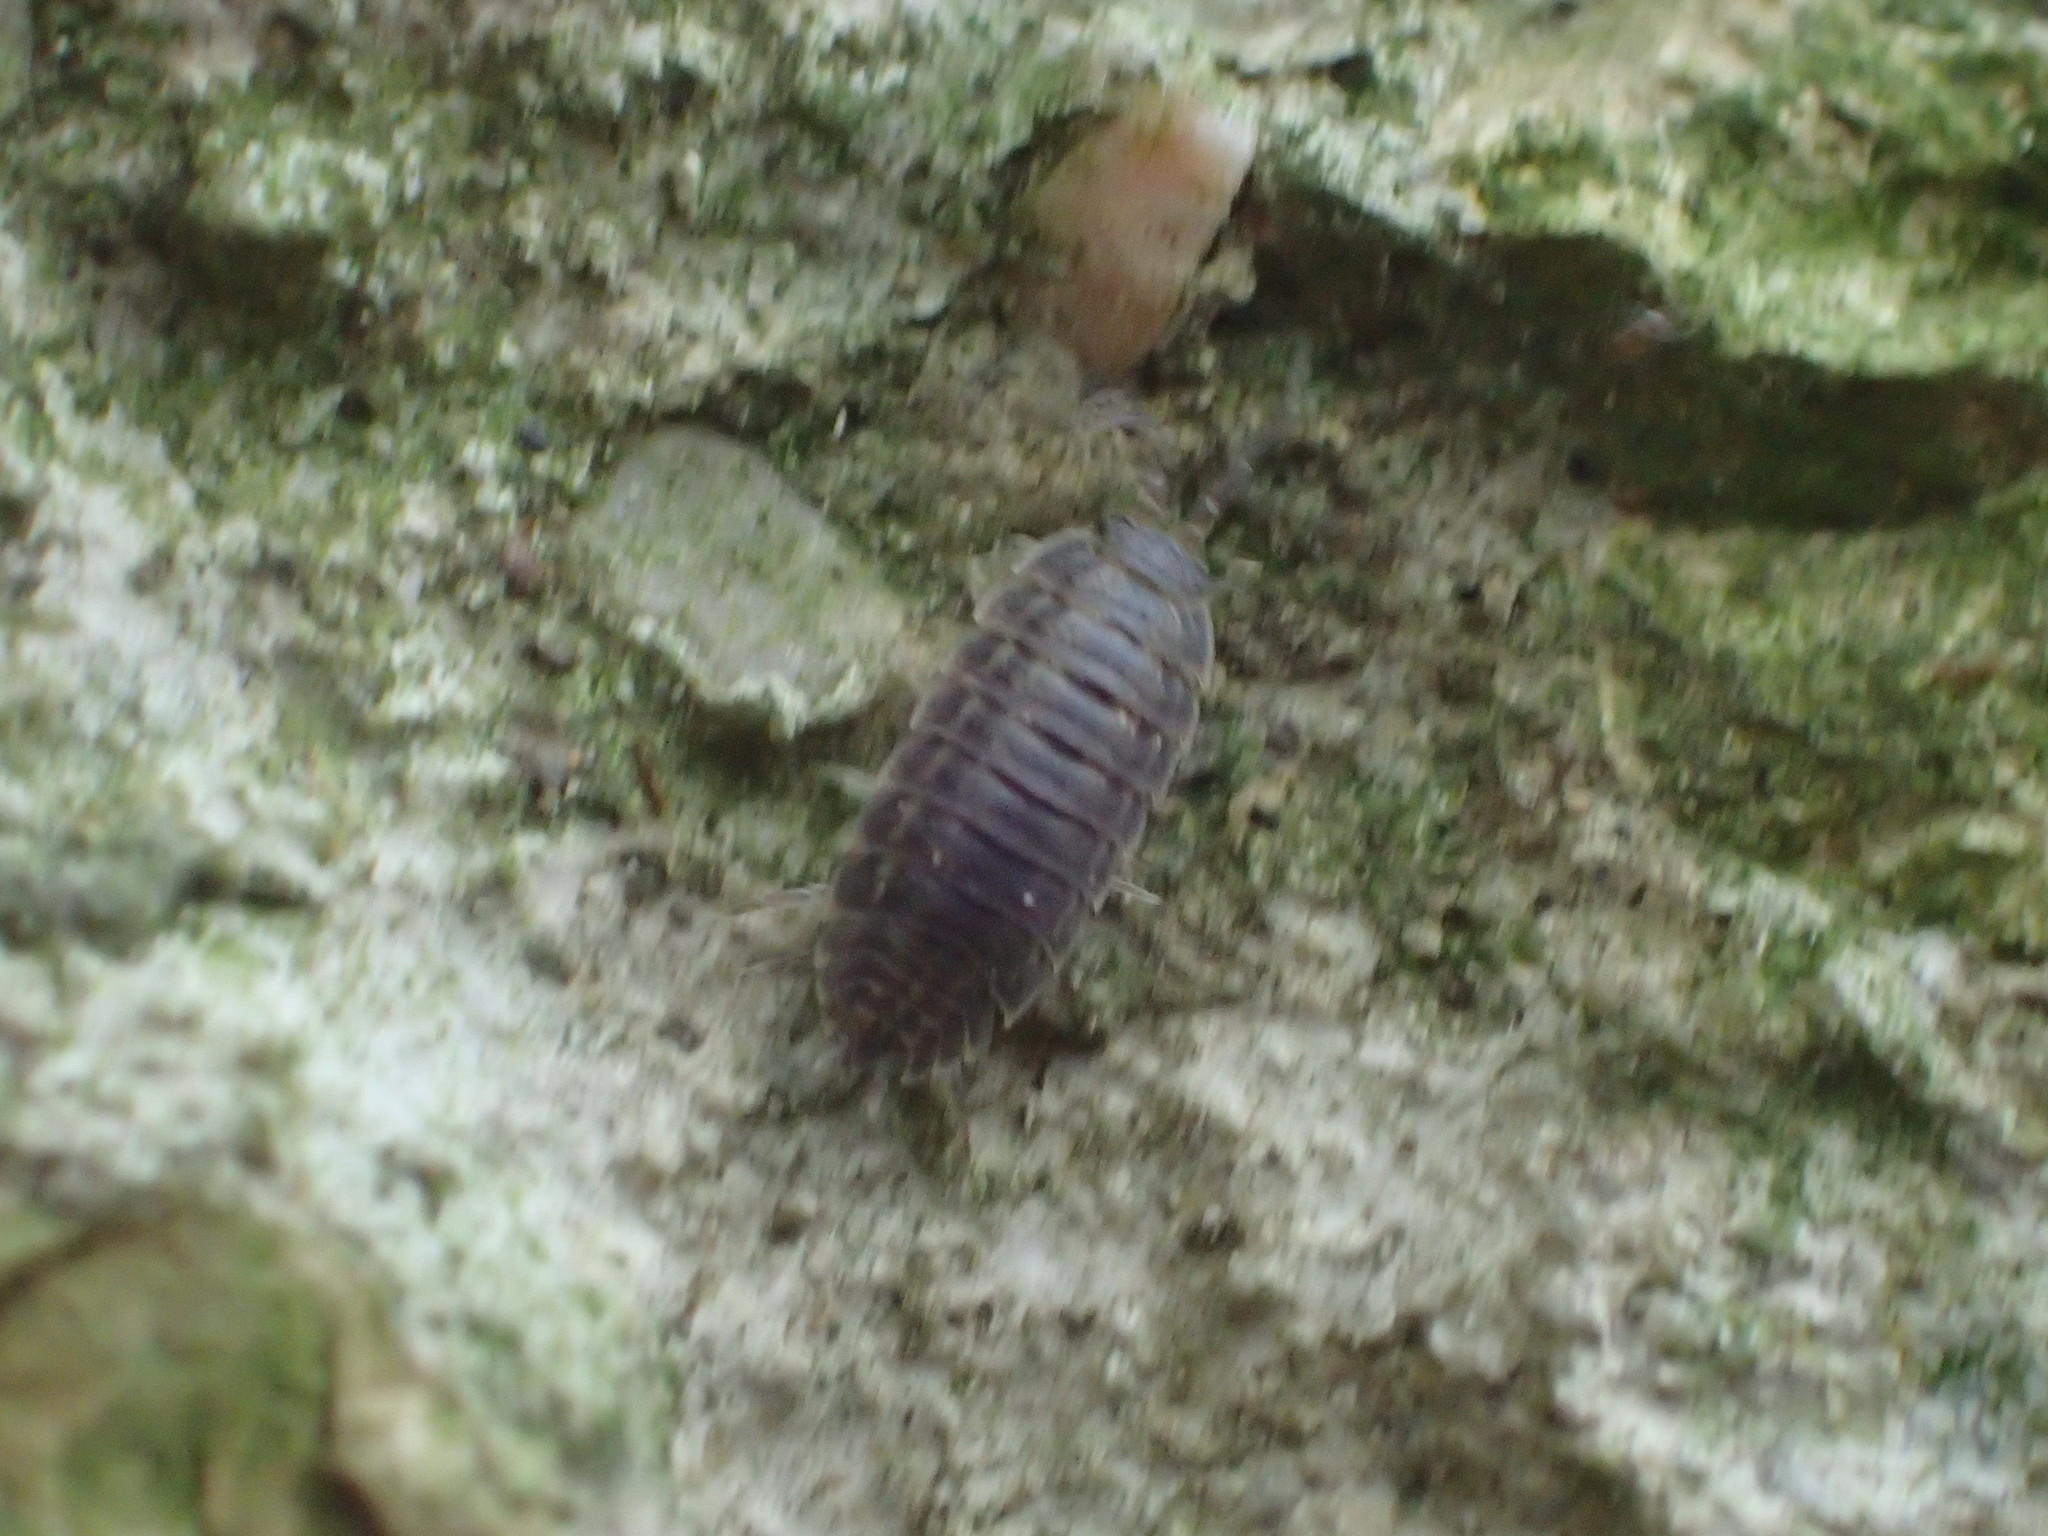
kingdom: Animalia
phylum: Arthropoda
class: Malacostraca
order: Isopoda
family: Trachelipodidae
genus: Trachelipus
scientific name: Trachelipus rathkii
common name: Isopod
